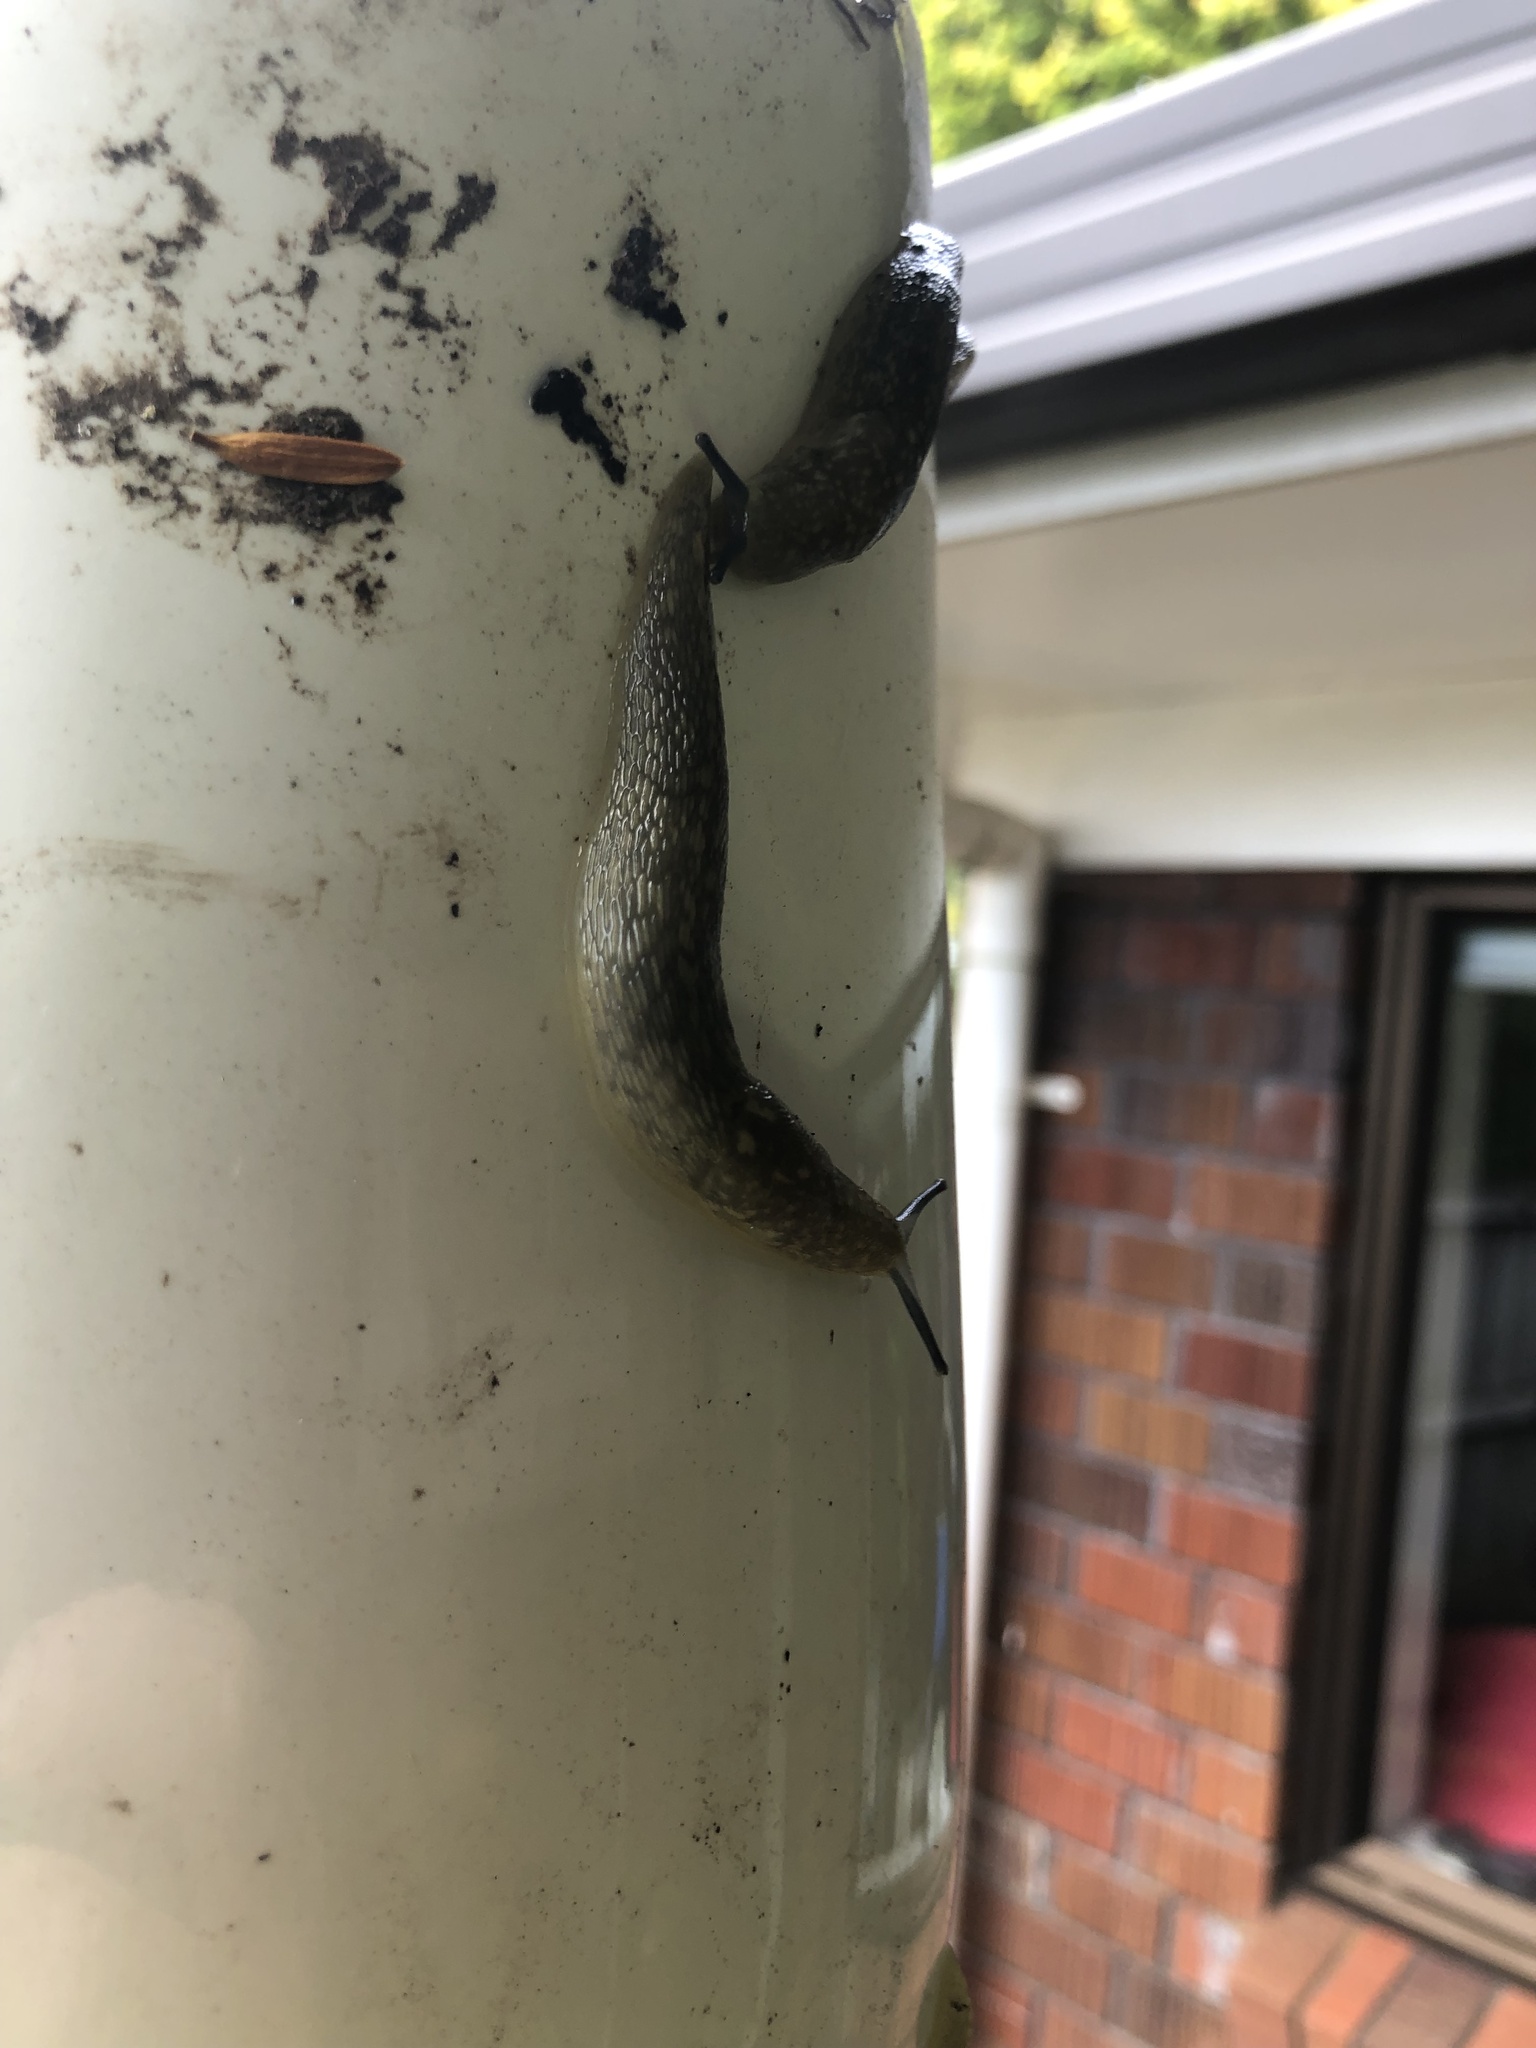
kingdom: Animalia
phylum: Mollusca
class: Gastropoda
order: Stylommatophora
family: Limacidae
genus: Limacus
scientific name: Limacus flavus
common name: Yellow gardenslug
